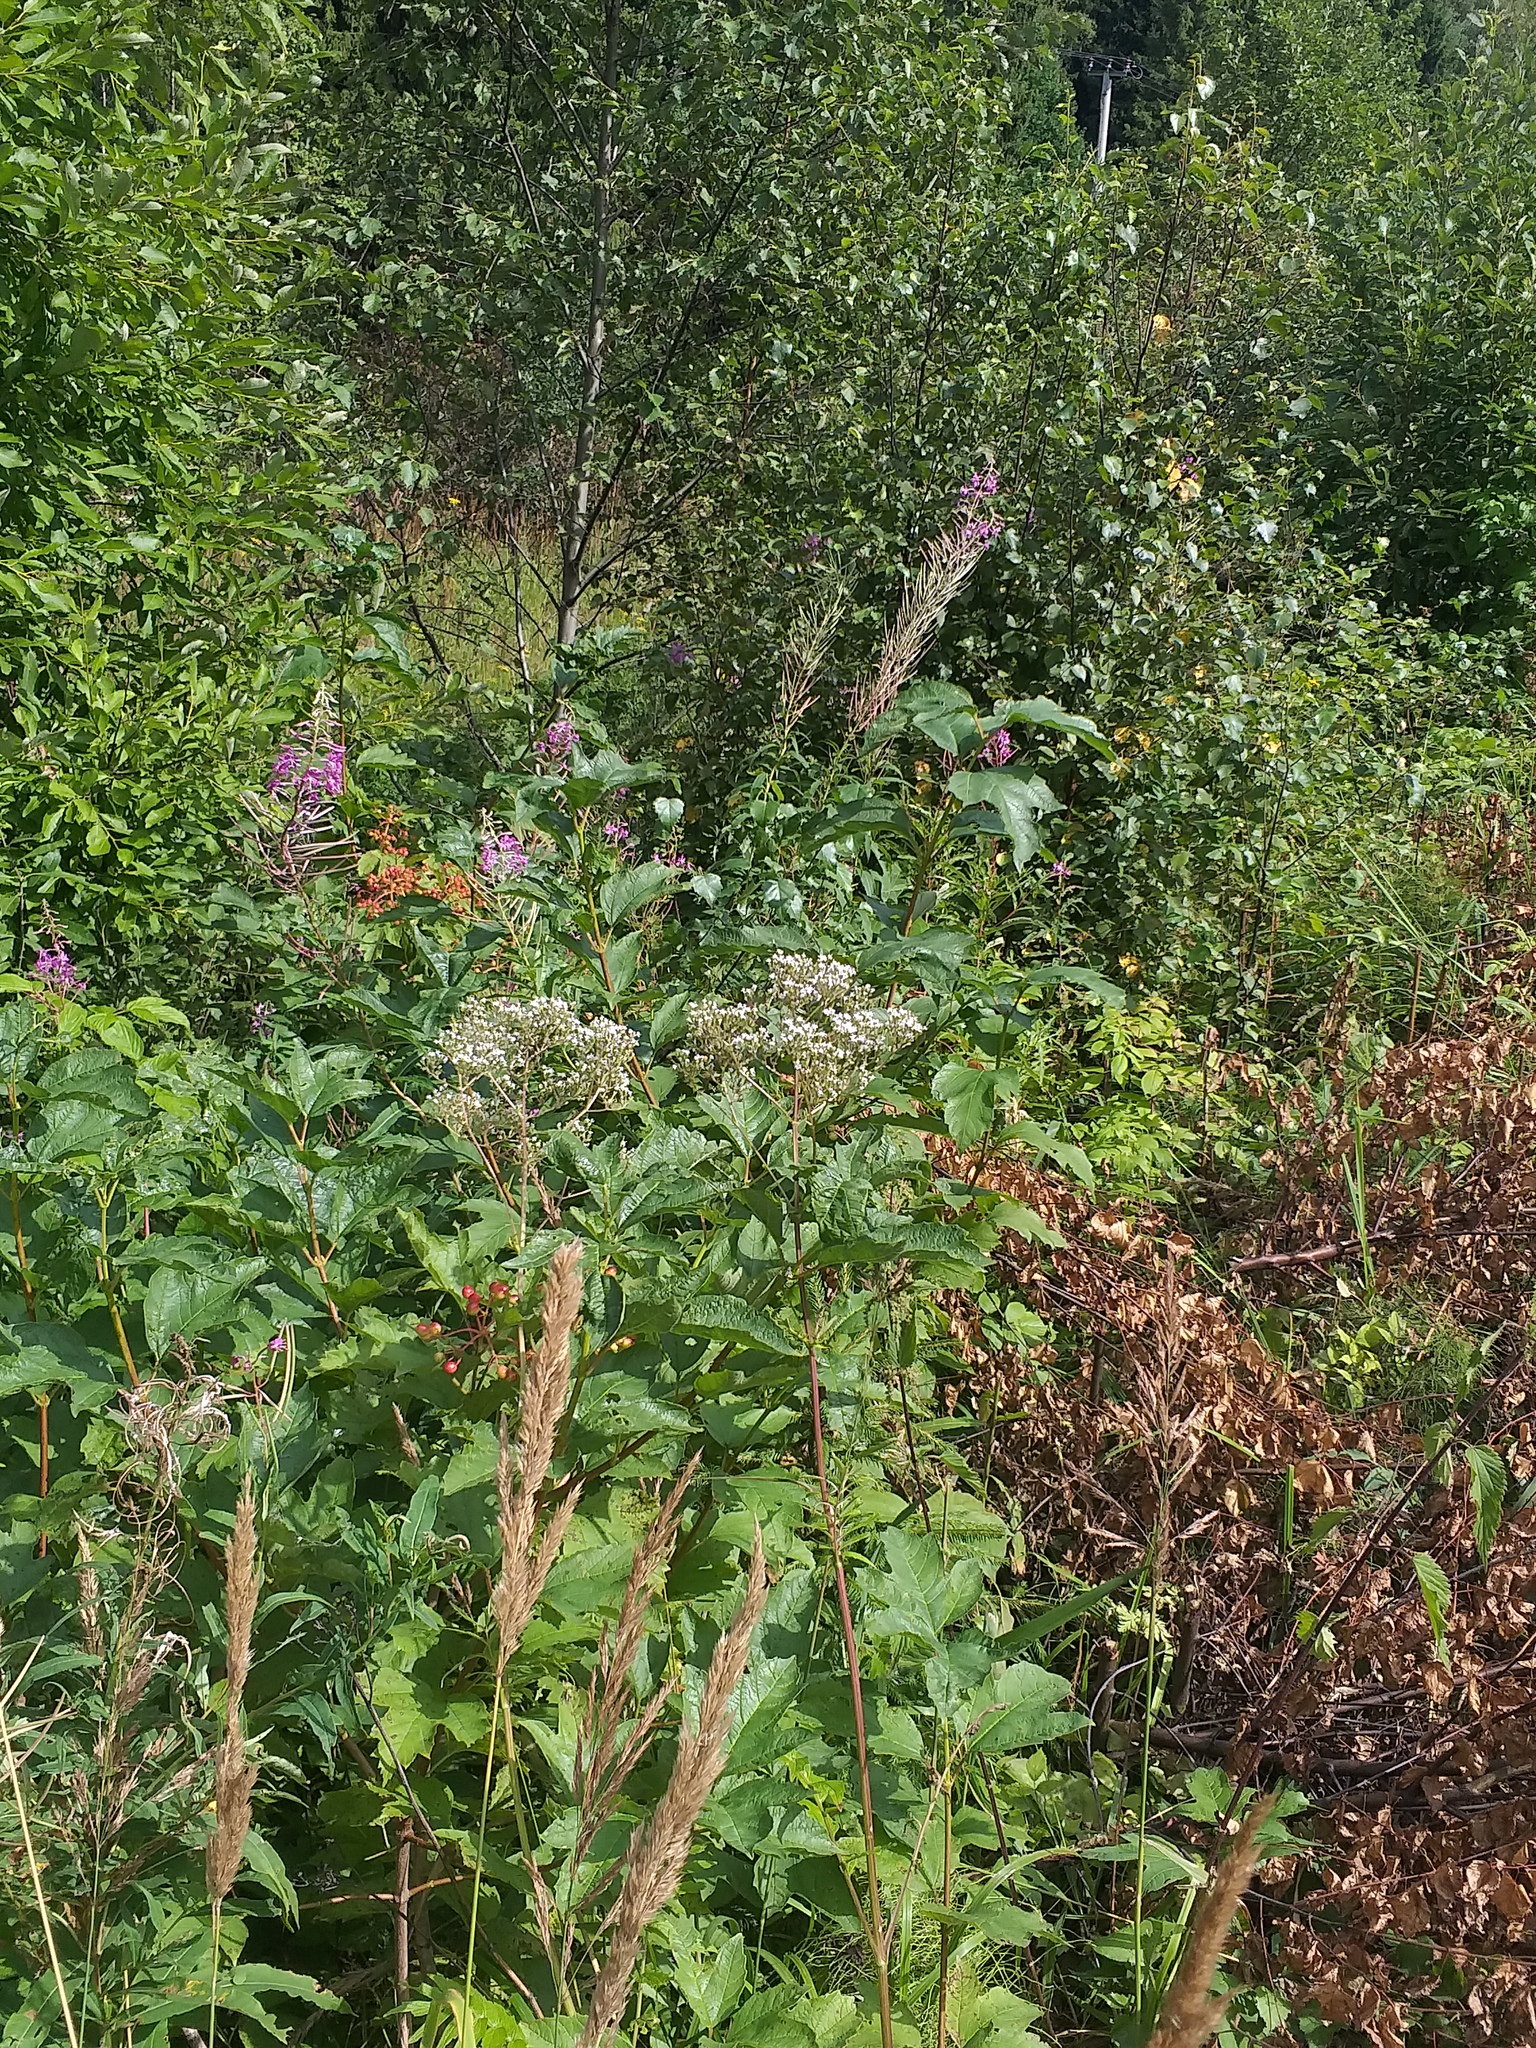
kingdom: Plantae
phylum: Tracheophyta
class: Magnoliopsida
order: Dipsacales
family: Caprifoliaceae
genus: Valeriana
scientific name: Valeriana officinalis
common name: Common valerian
